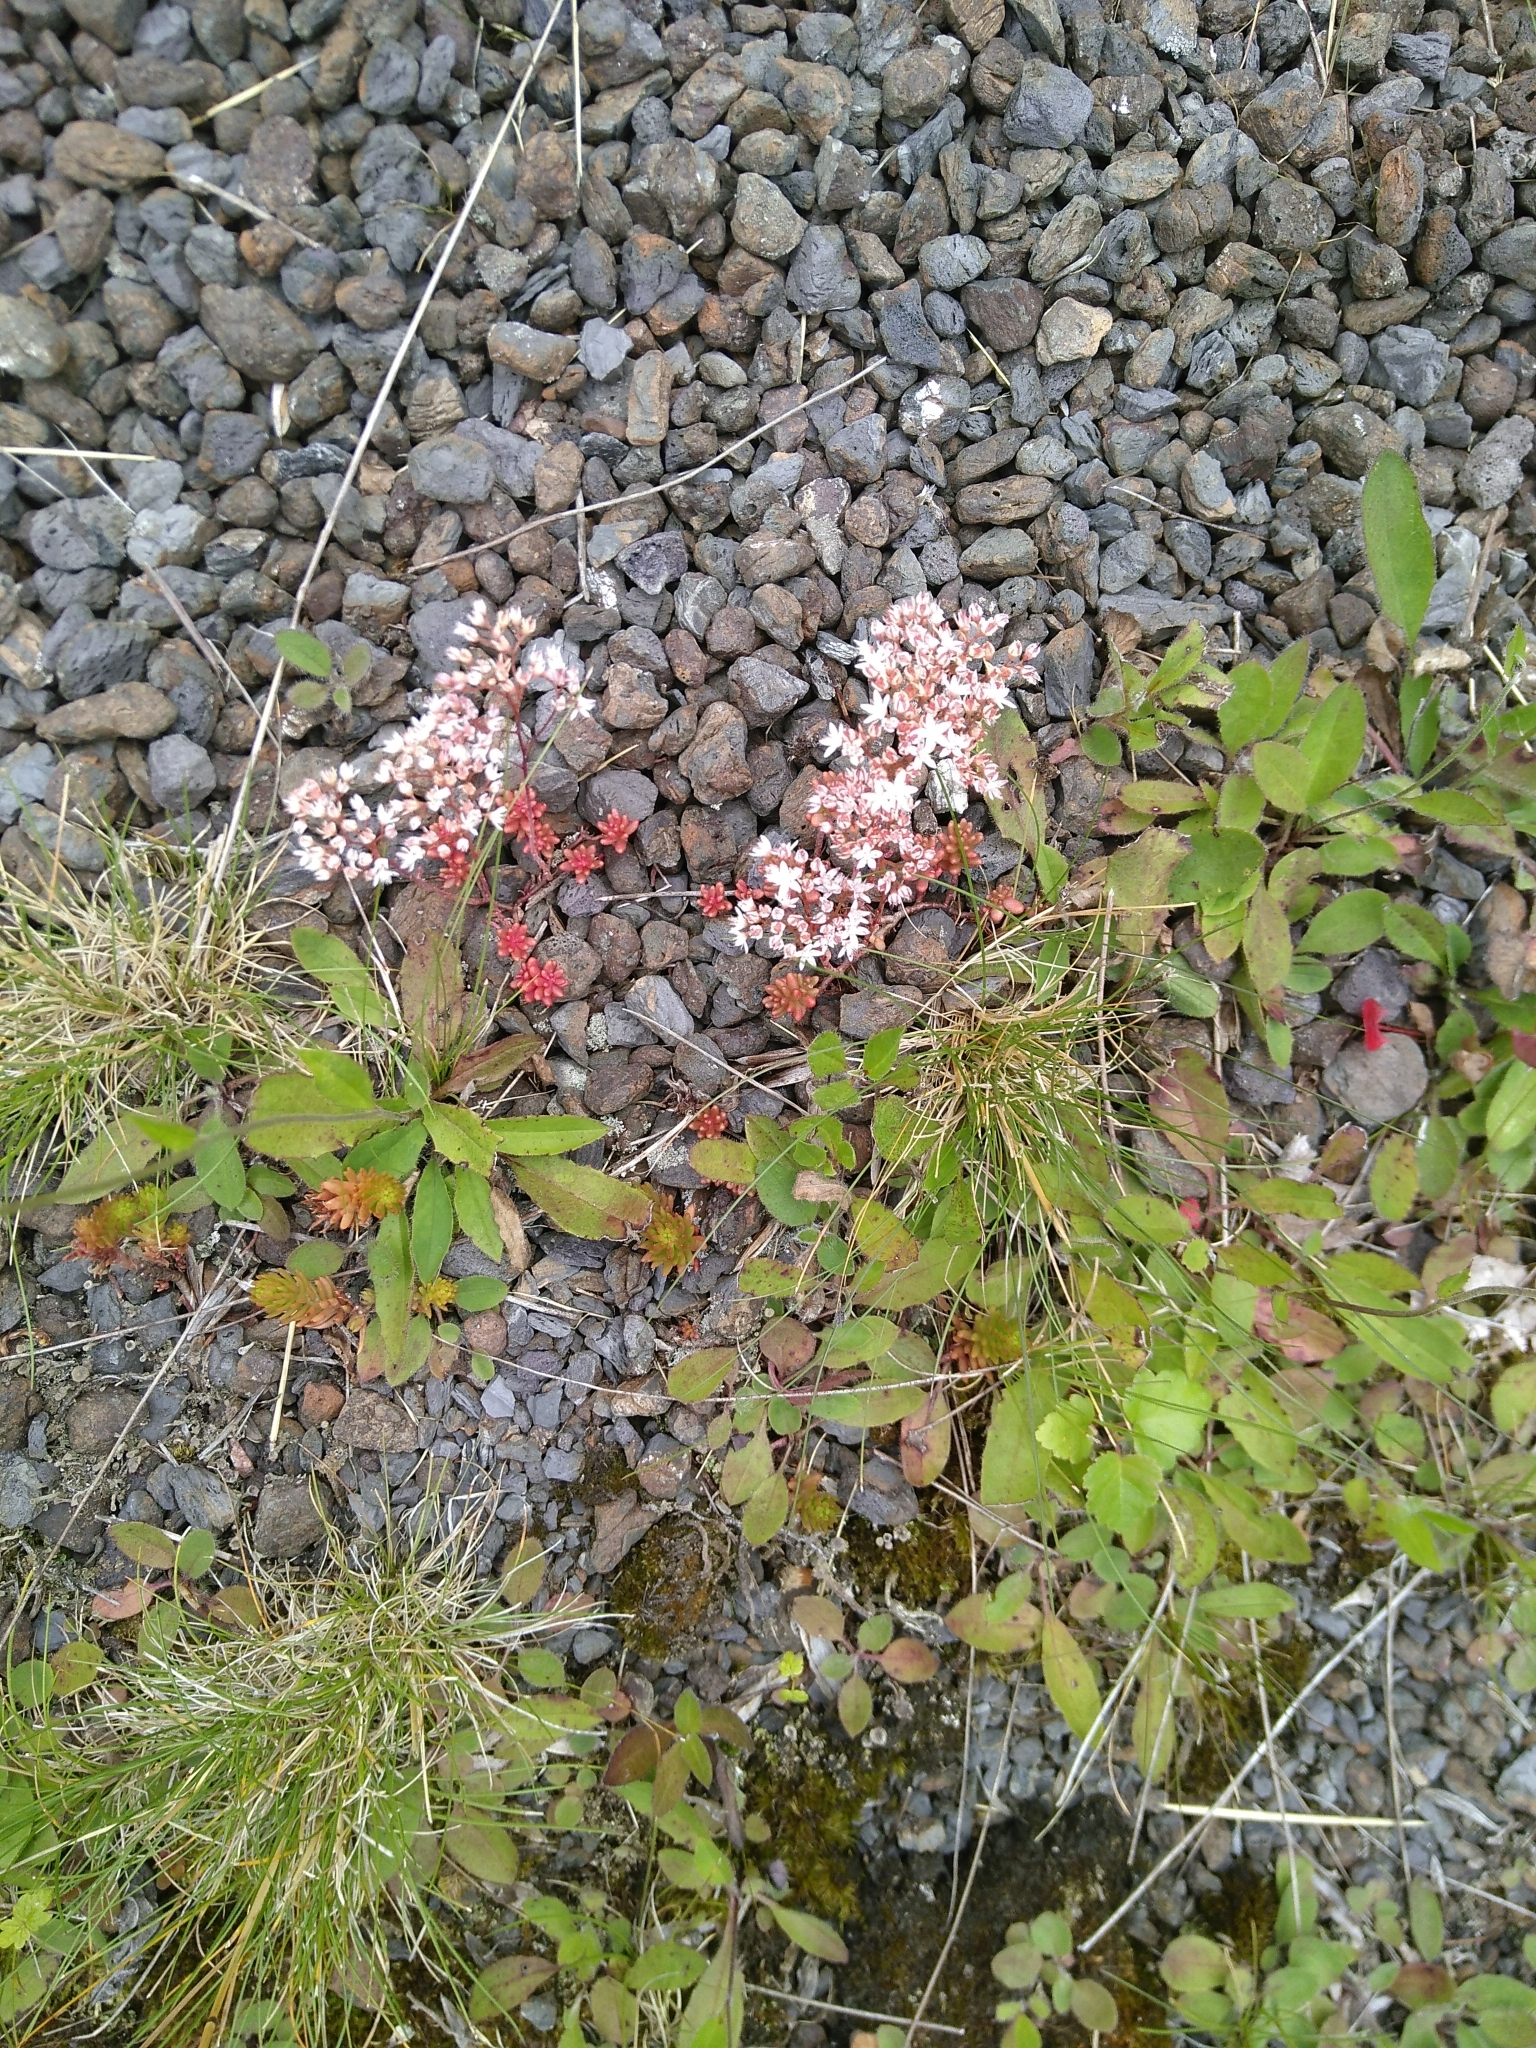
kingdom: Plantae
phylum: Tracheophyta
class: Magnoliopsida
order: Saxifragales
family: Crassulaceae
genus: Sedum
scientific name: Sedum album
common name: White stonecrop
